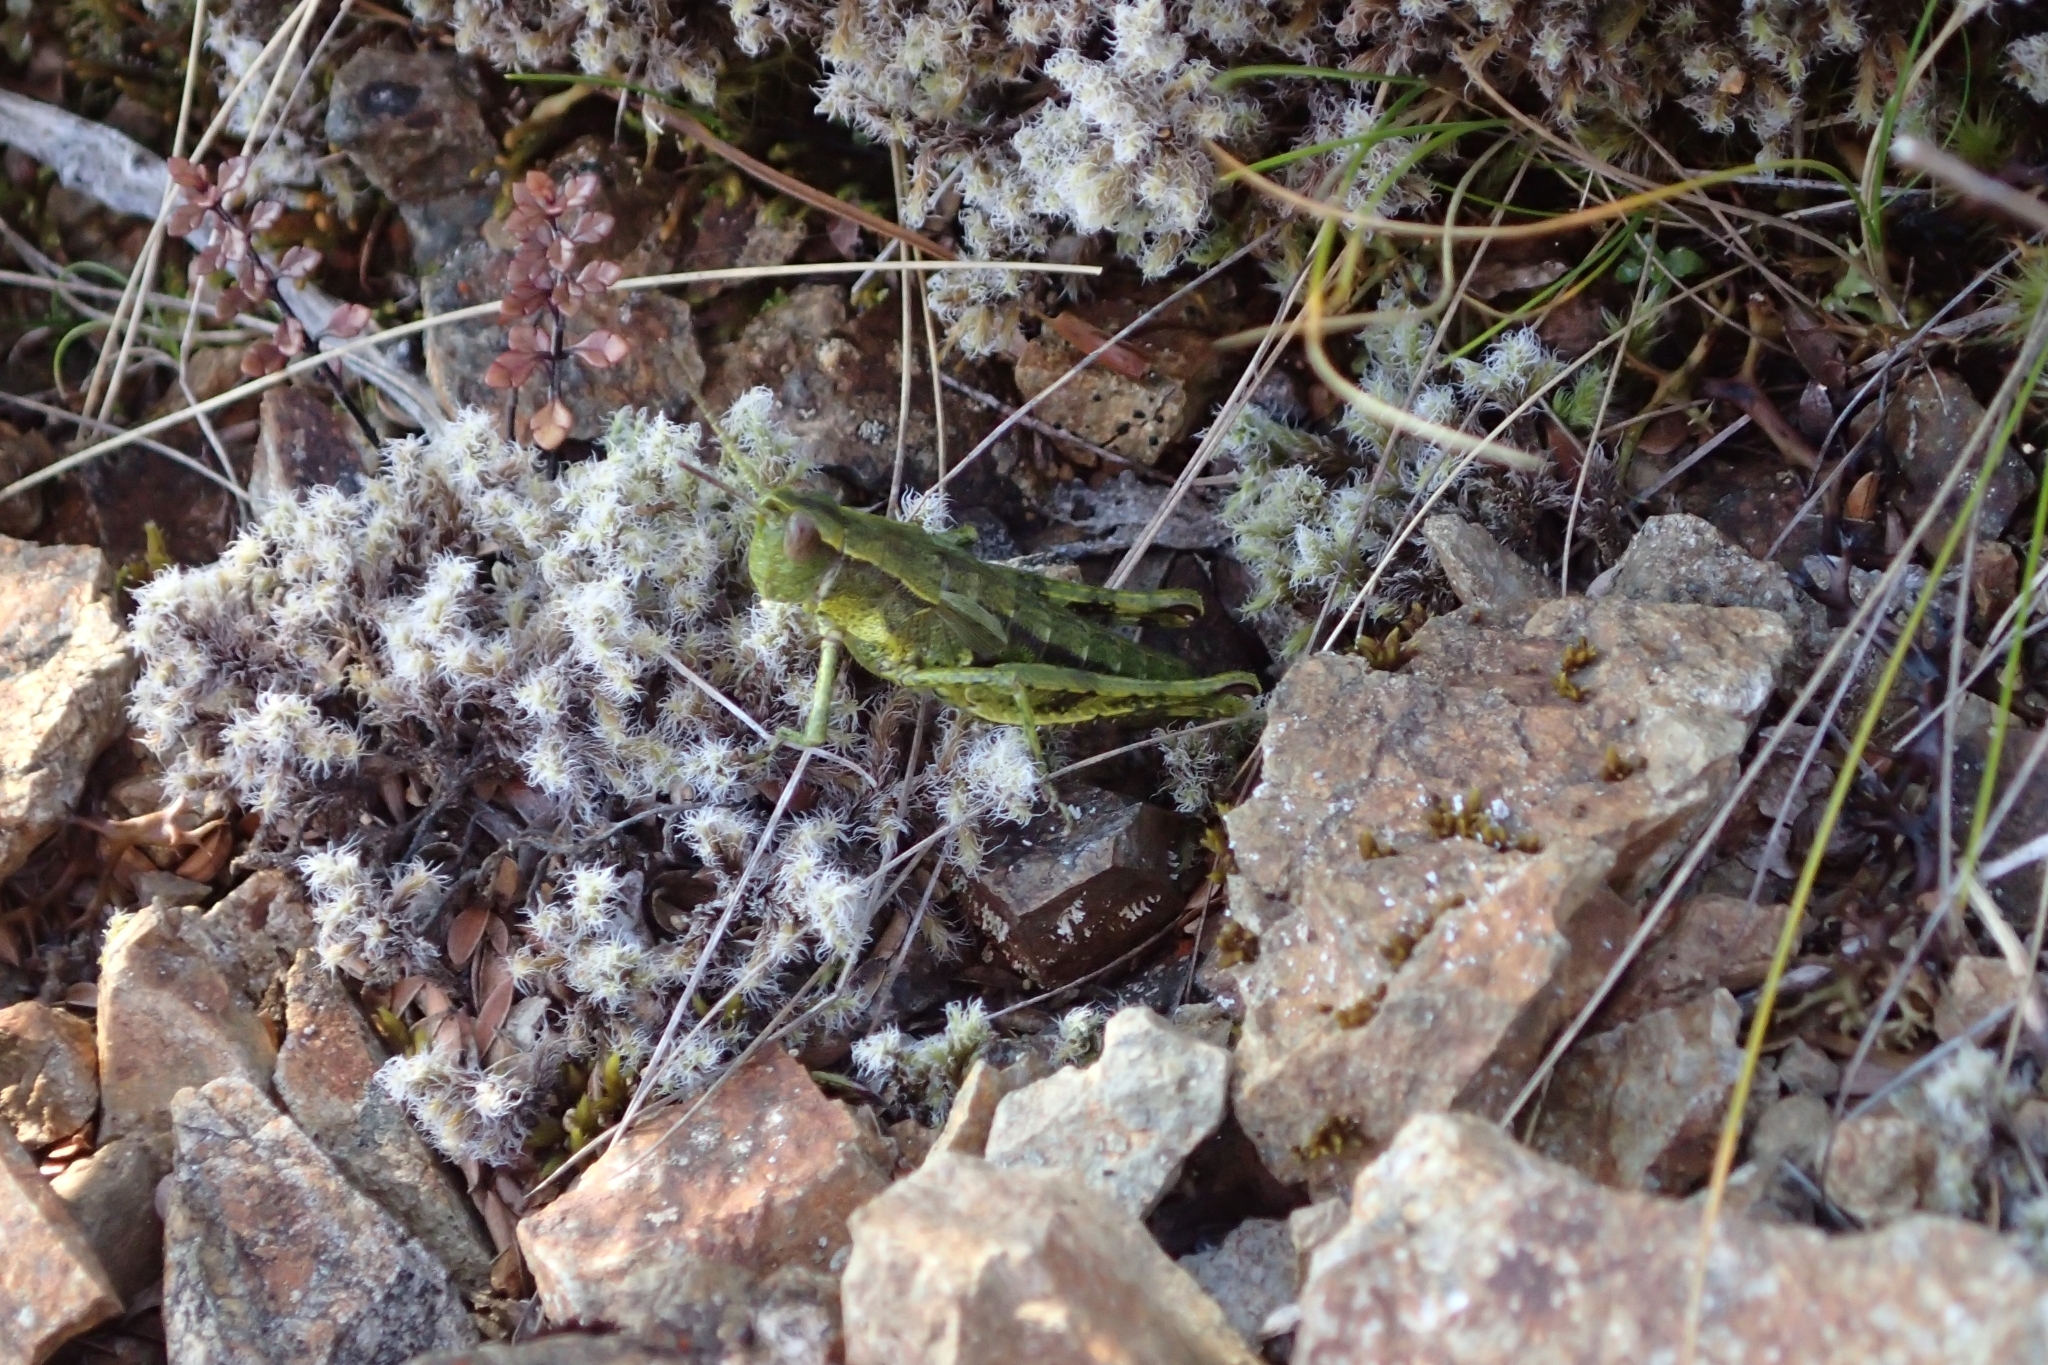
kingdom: Animalia
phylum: Arthropoda
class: Insecta
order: Orthoptera
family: Acrididae
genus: Sigaus
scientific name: Sigaus piliferus
